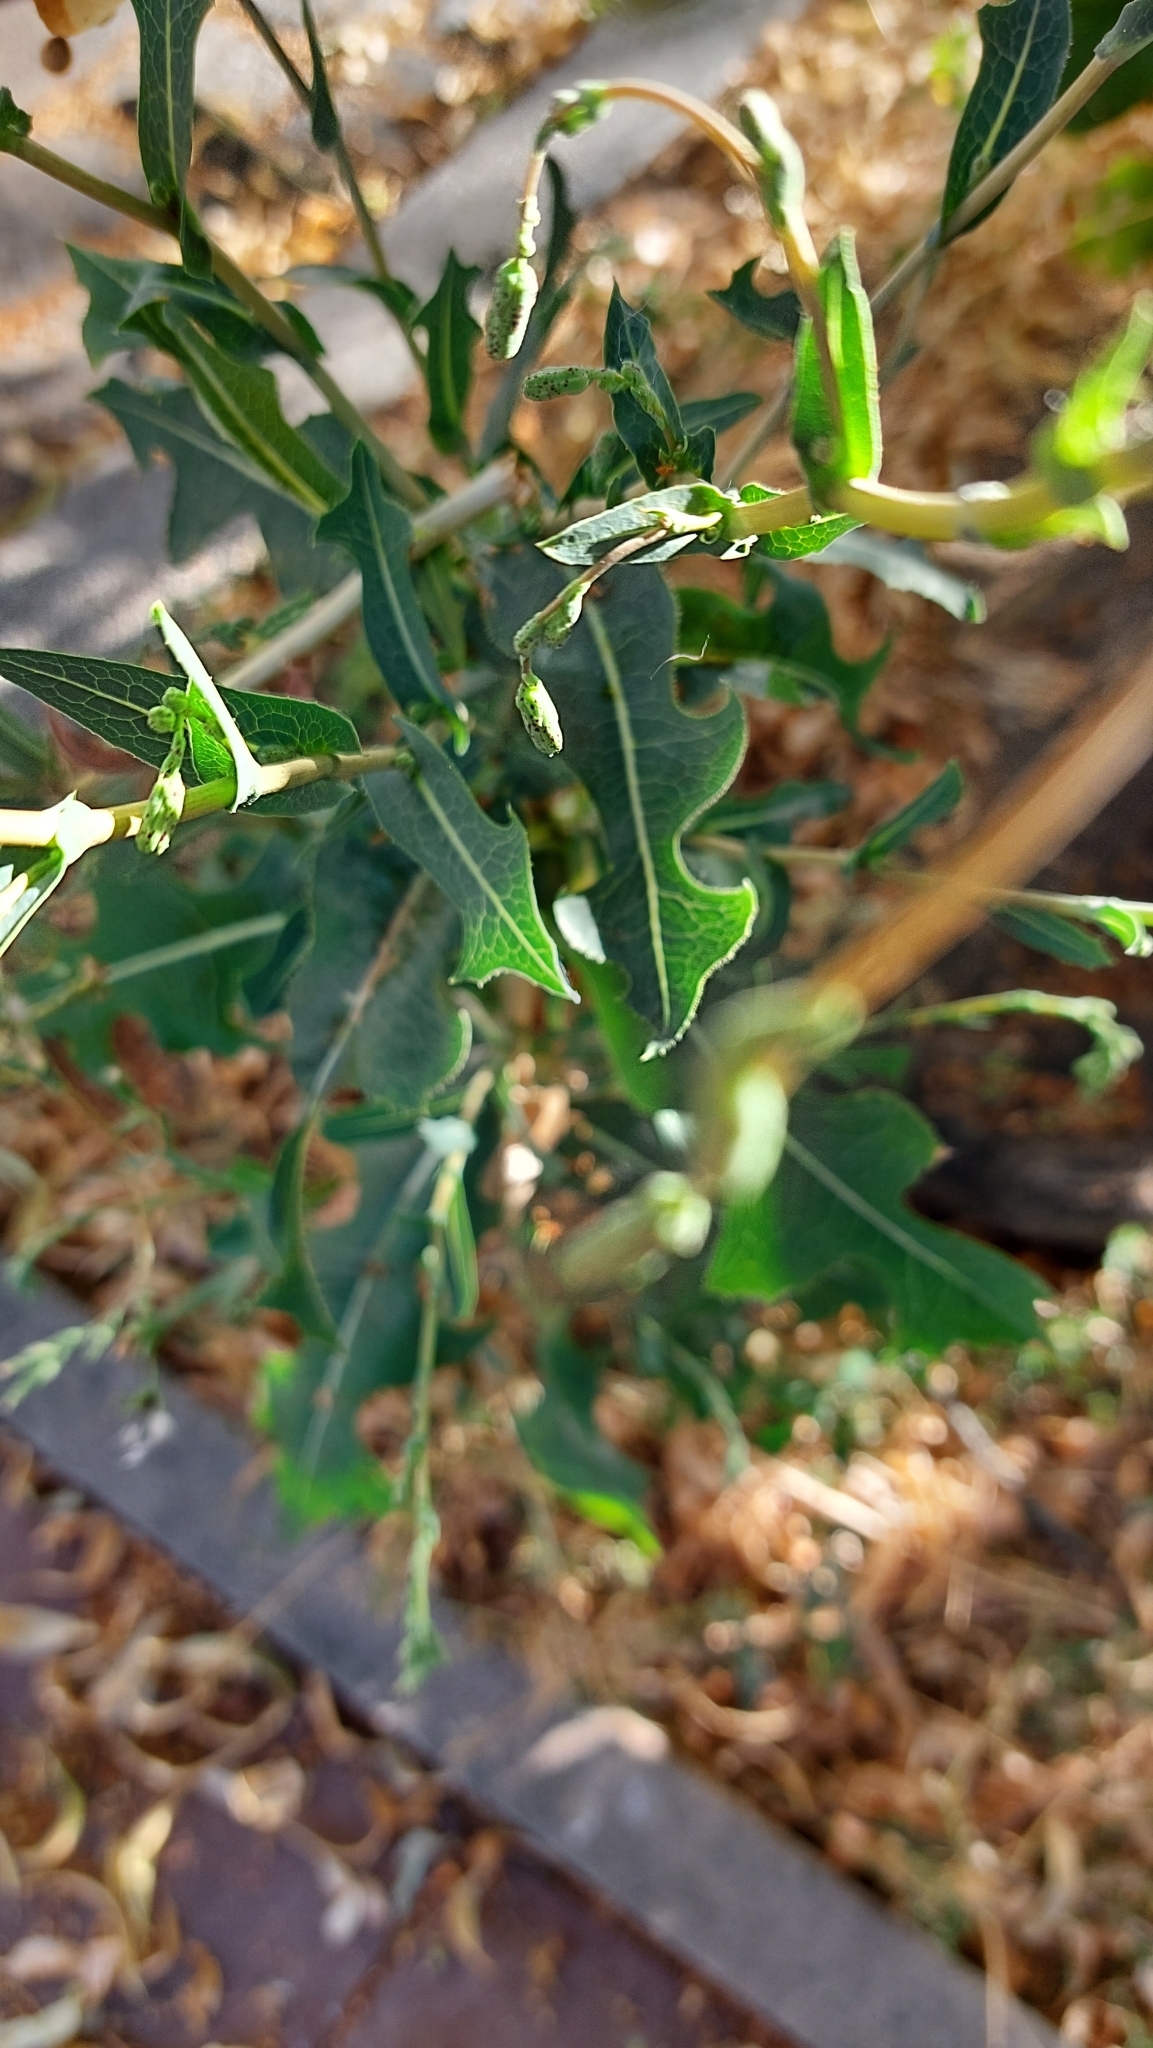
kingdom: Plantae
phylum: Tracheophyta
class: Magnoliopsida
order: Asterales
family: Asteraceae
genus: Lactuca
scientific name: Lactuca serriola
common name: Prickly lettuce
